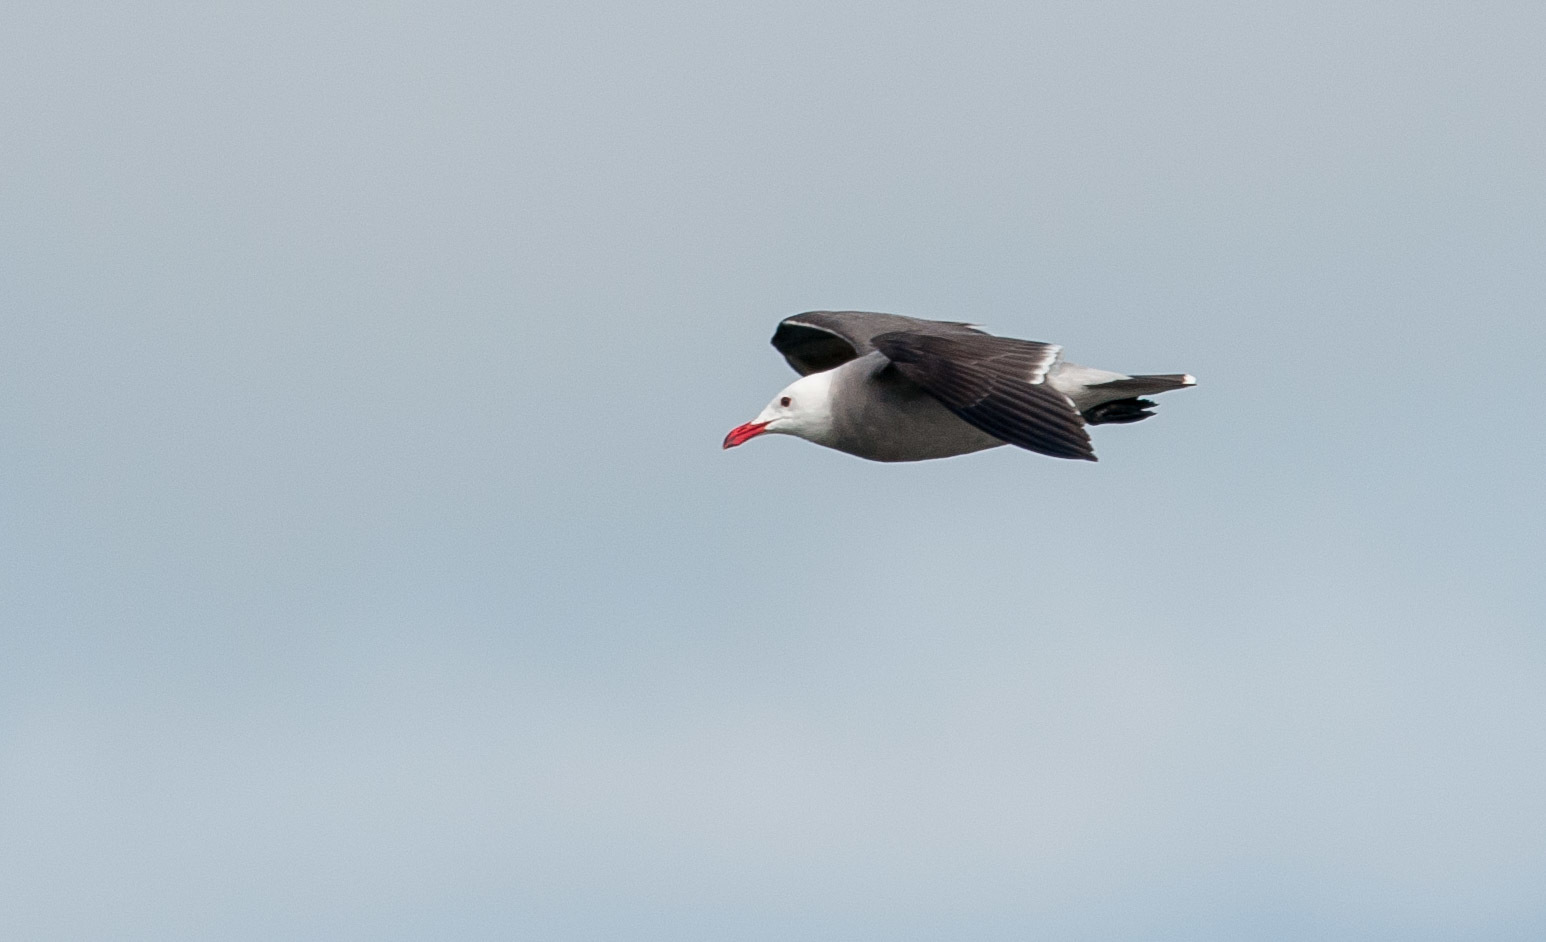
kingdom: Animalia
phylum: Chordata
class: Aves
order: Charadriiformes
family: Laridae
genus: Larus
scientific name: Larus heermanni
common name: Heermann's gull
